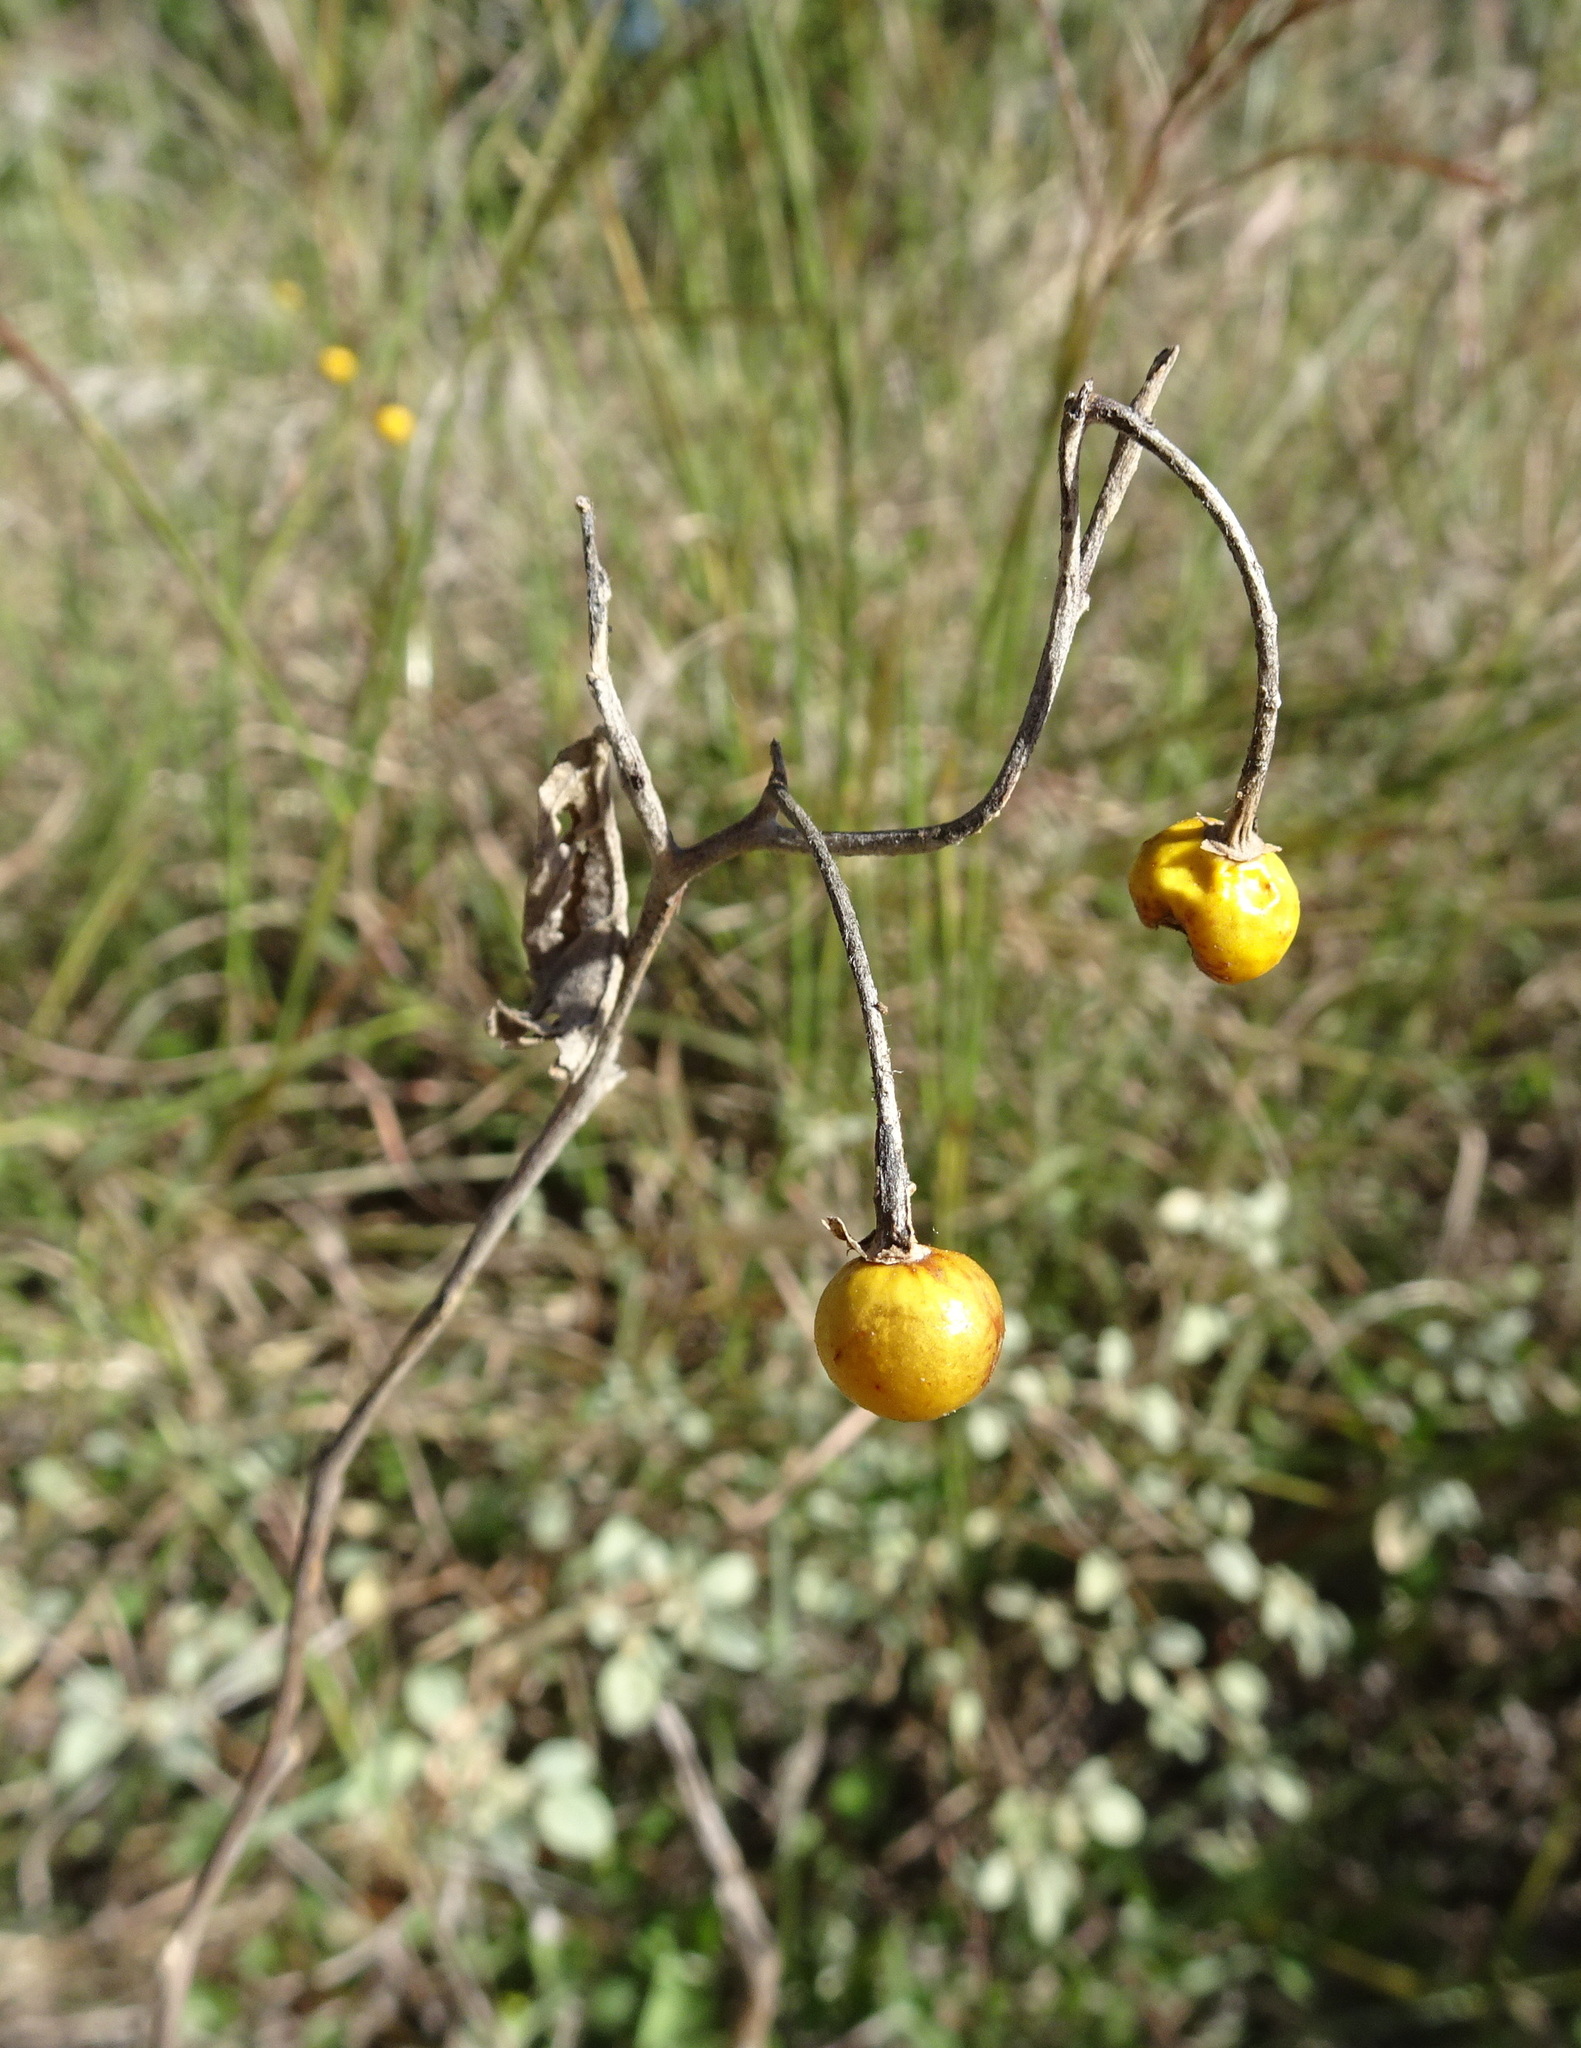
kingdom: Plantae
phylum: Tracheophyta
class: Magnoliopsida
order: Solanales
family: Solanaceae
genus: Solanum
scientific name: Solanum elaeagnifolium
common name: Silverleaf nightshade
